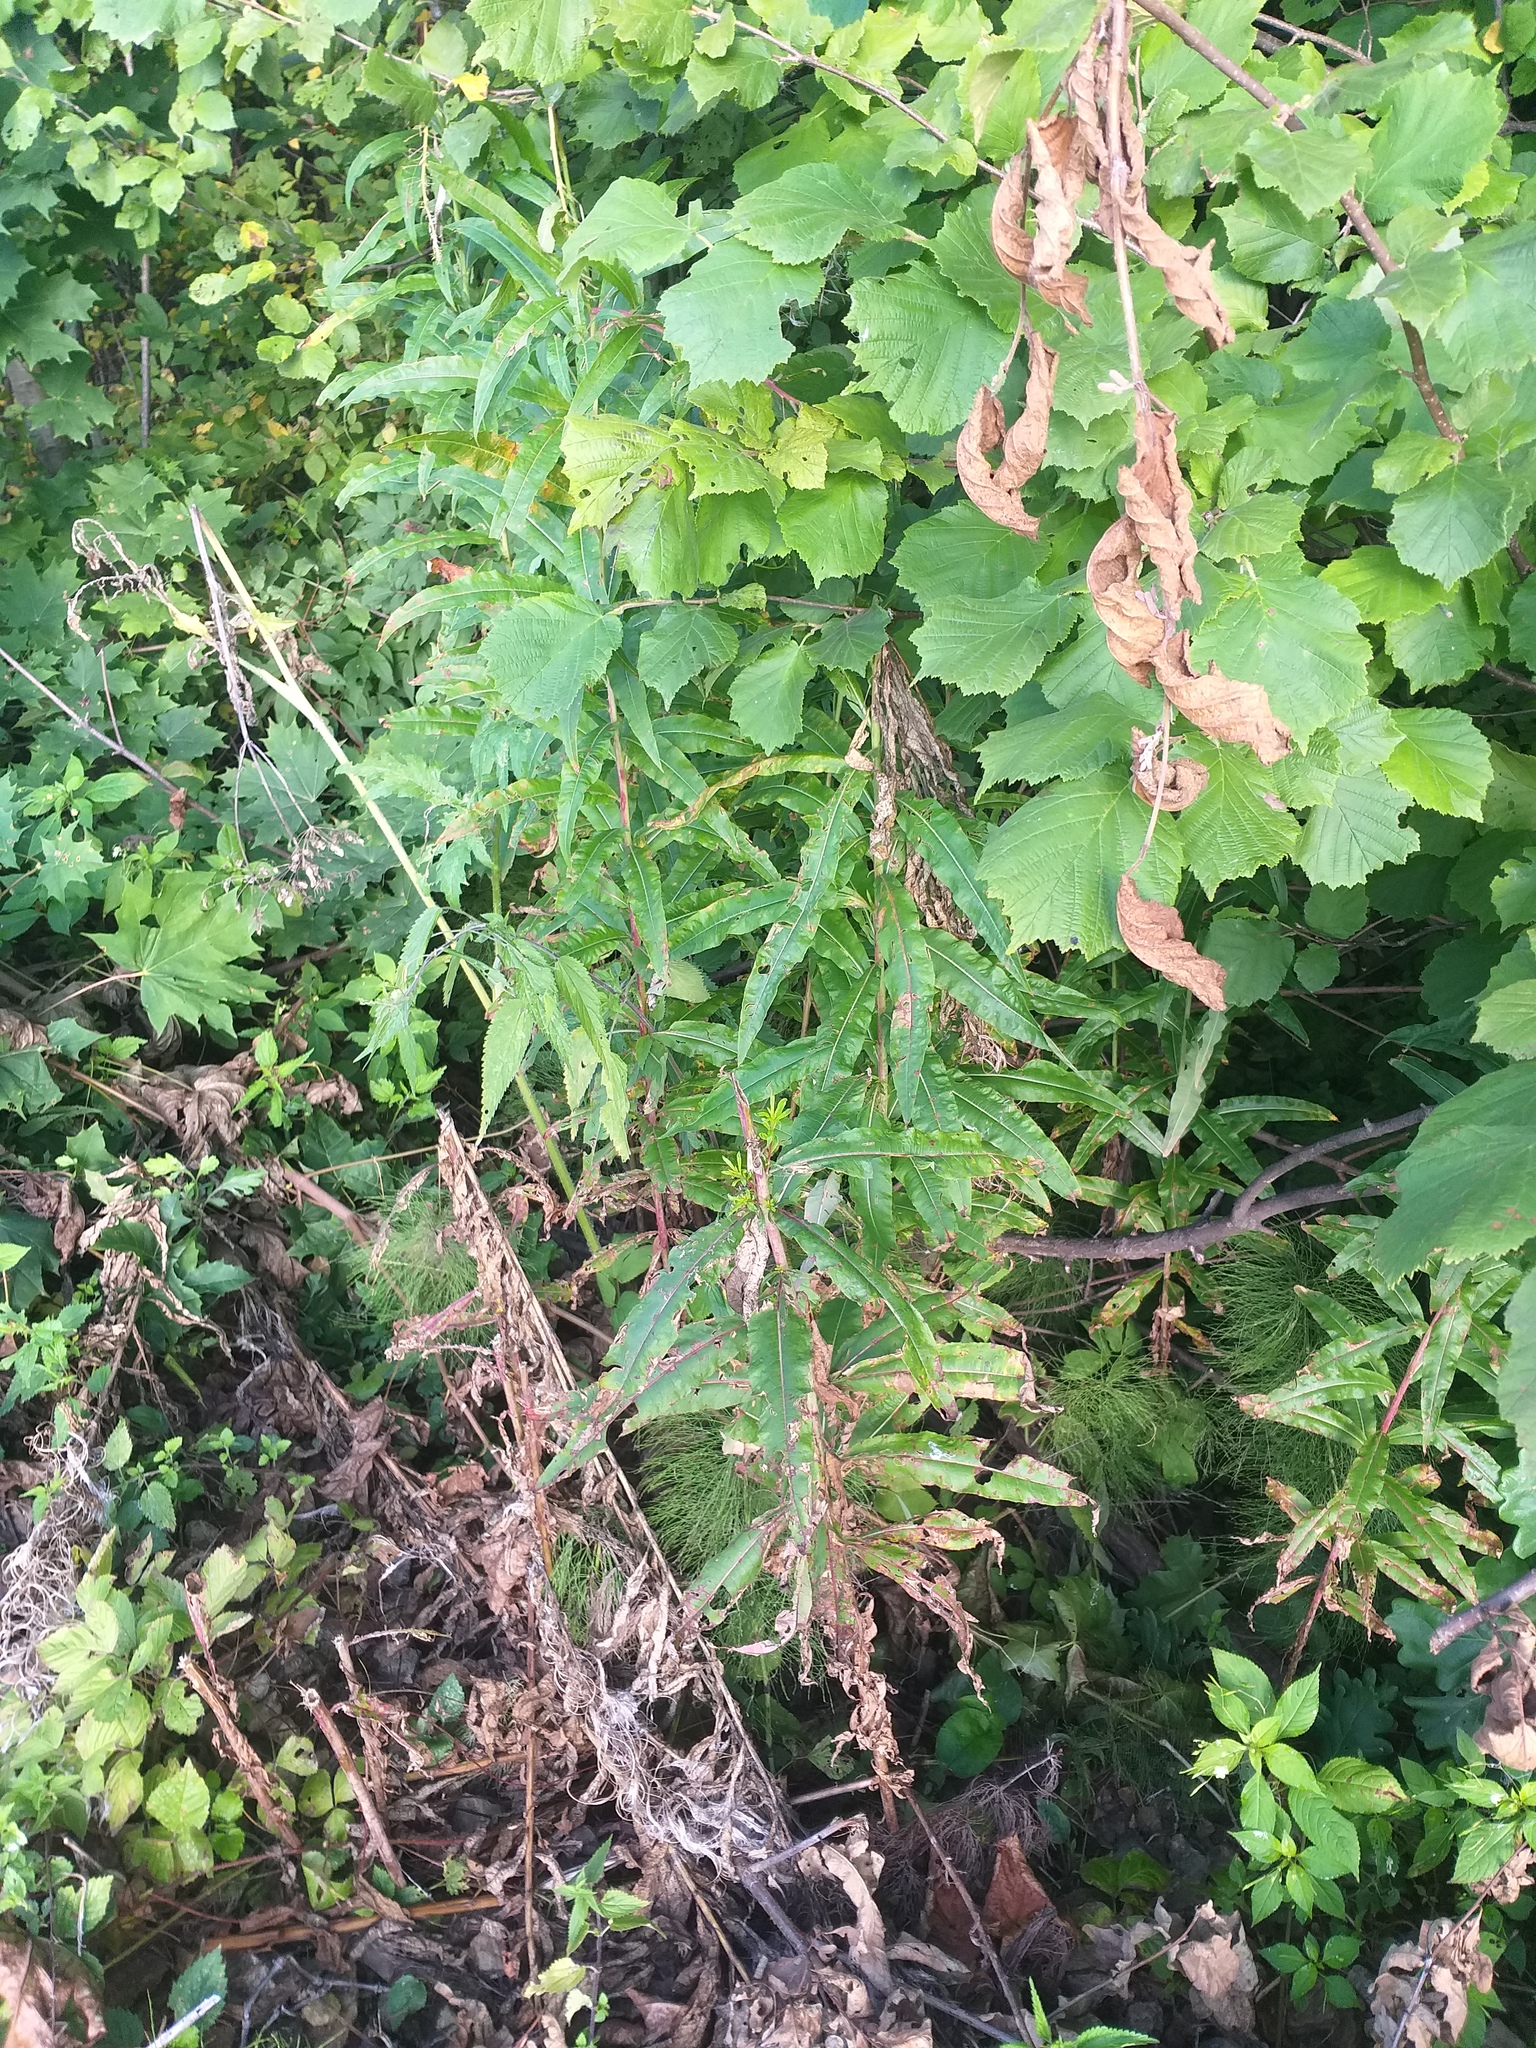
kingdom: Plantae
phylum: Tracheophyta
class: Magnoliopsida
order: Myrtales
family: Onagraceae
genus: Chamaenerion
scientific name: Chamaenerion angustifolium
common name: Fireweed
